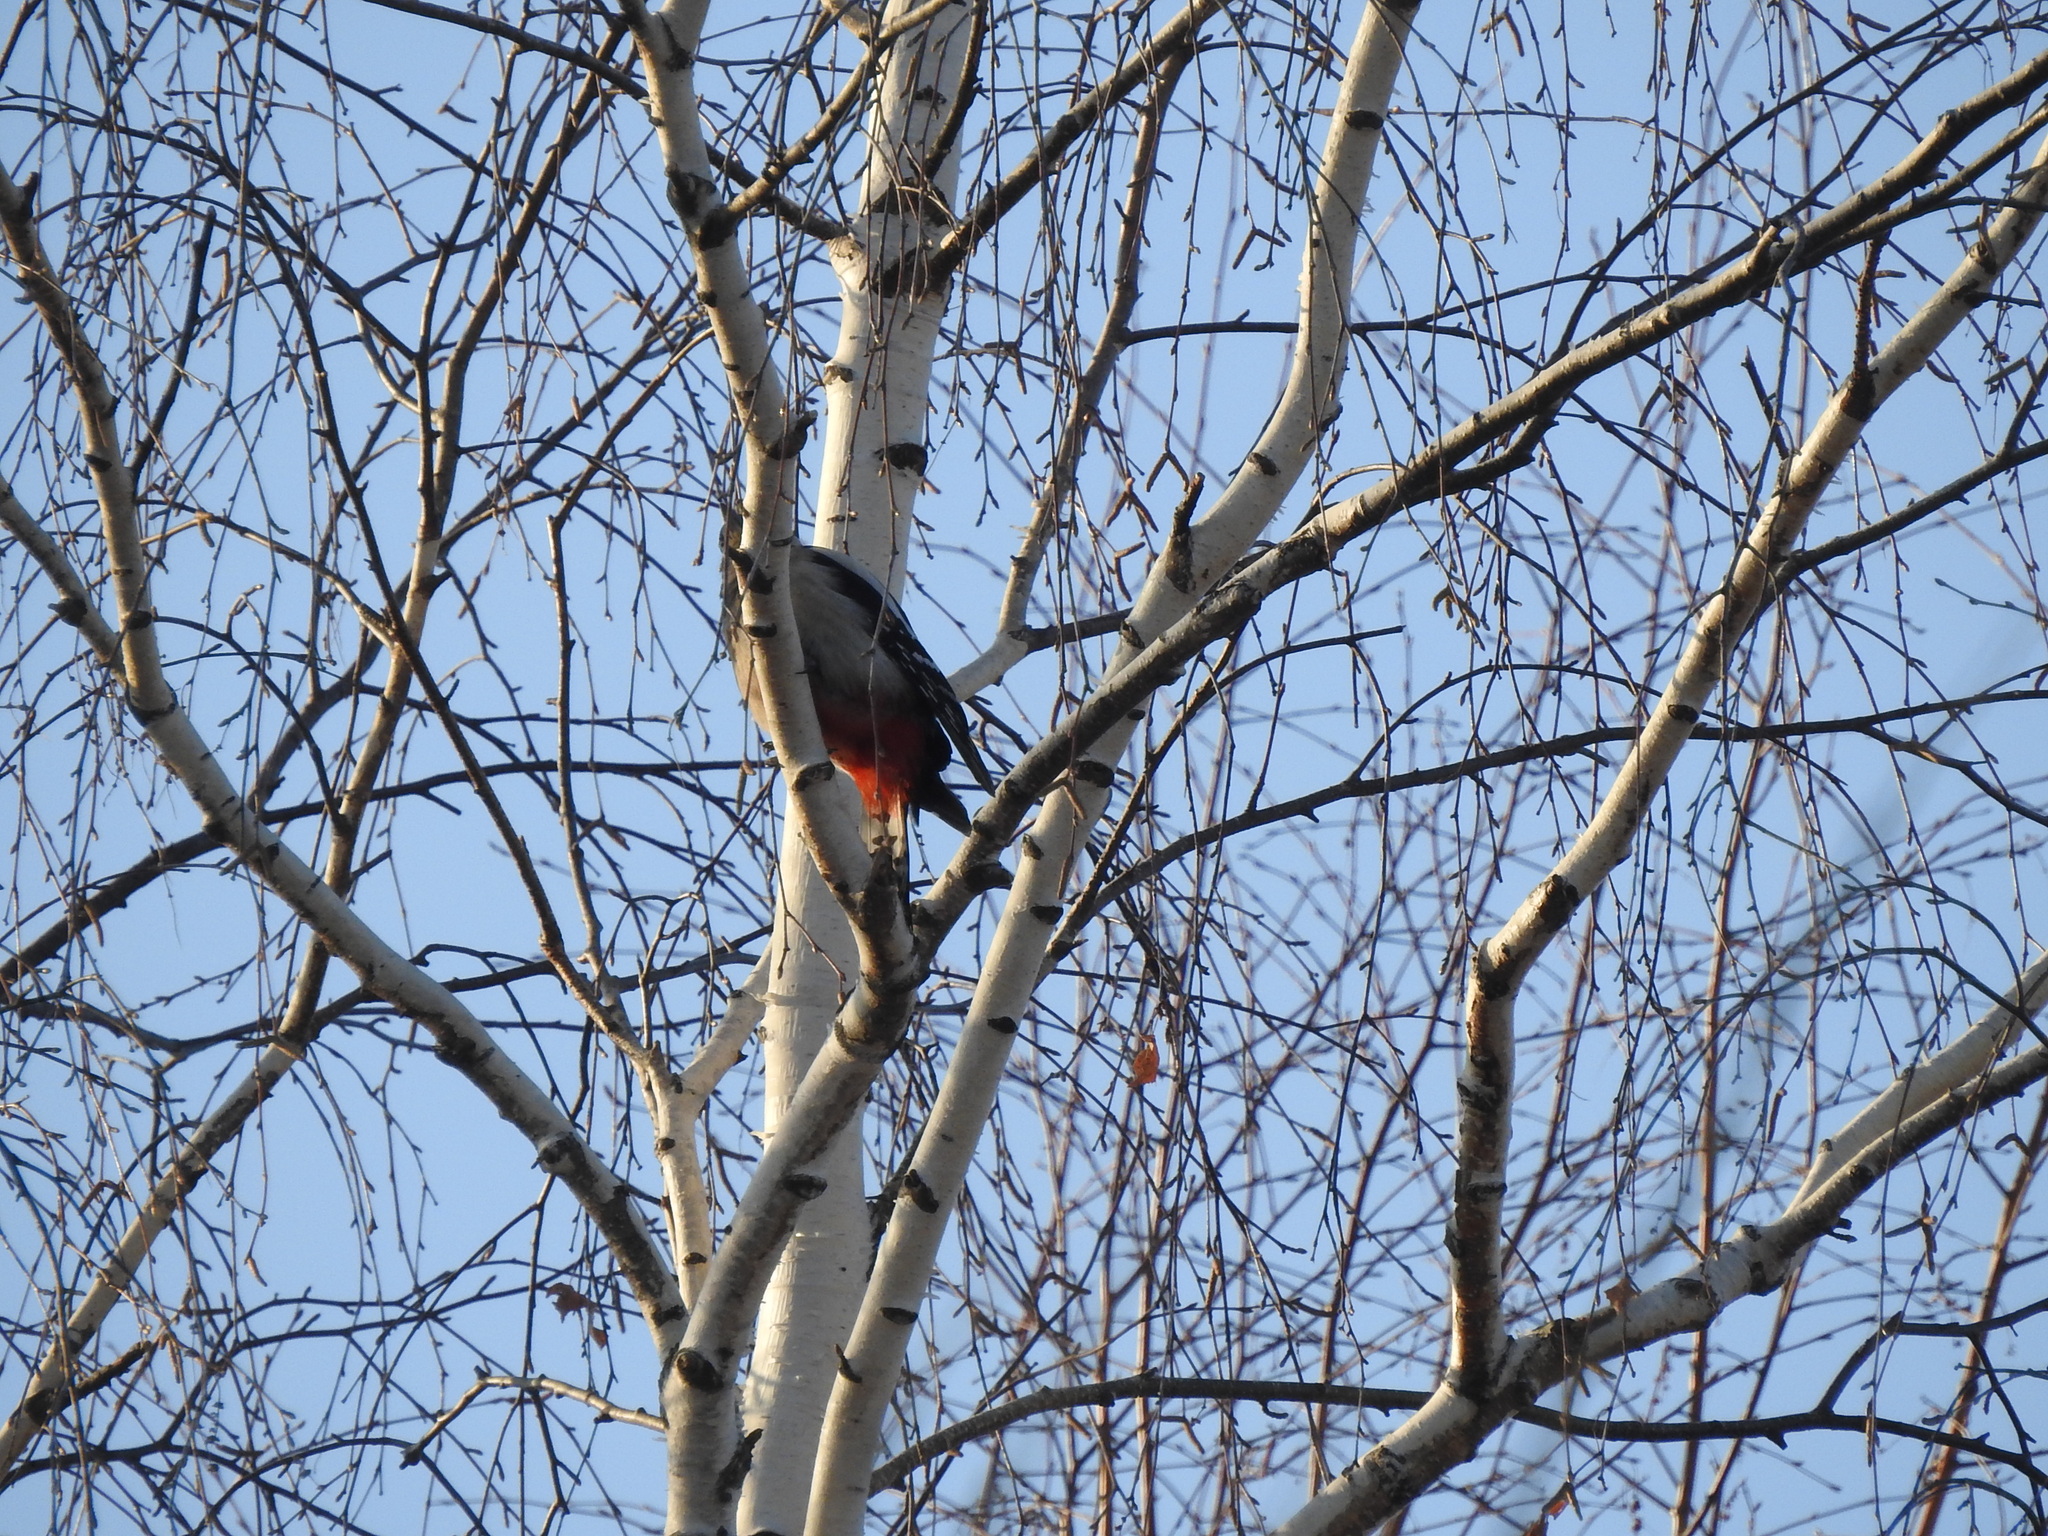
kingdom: Animalia
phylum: Chordata
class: Aves
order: Piciformes
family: Picidae
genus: Dendrocopos
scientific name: Dendrocopos major
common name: Great spotted woodpecker
